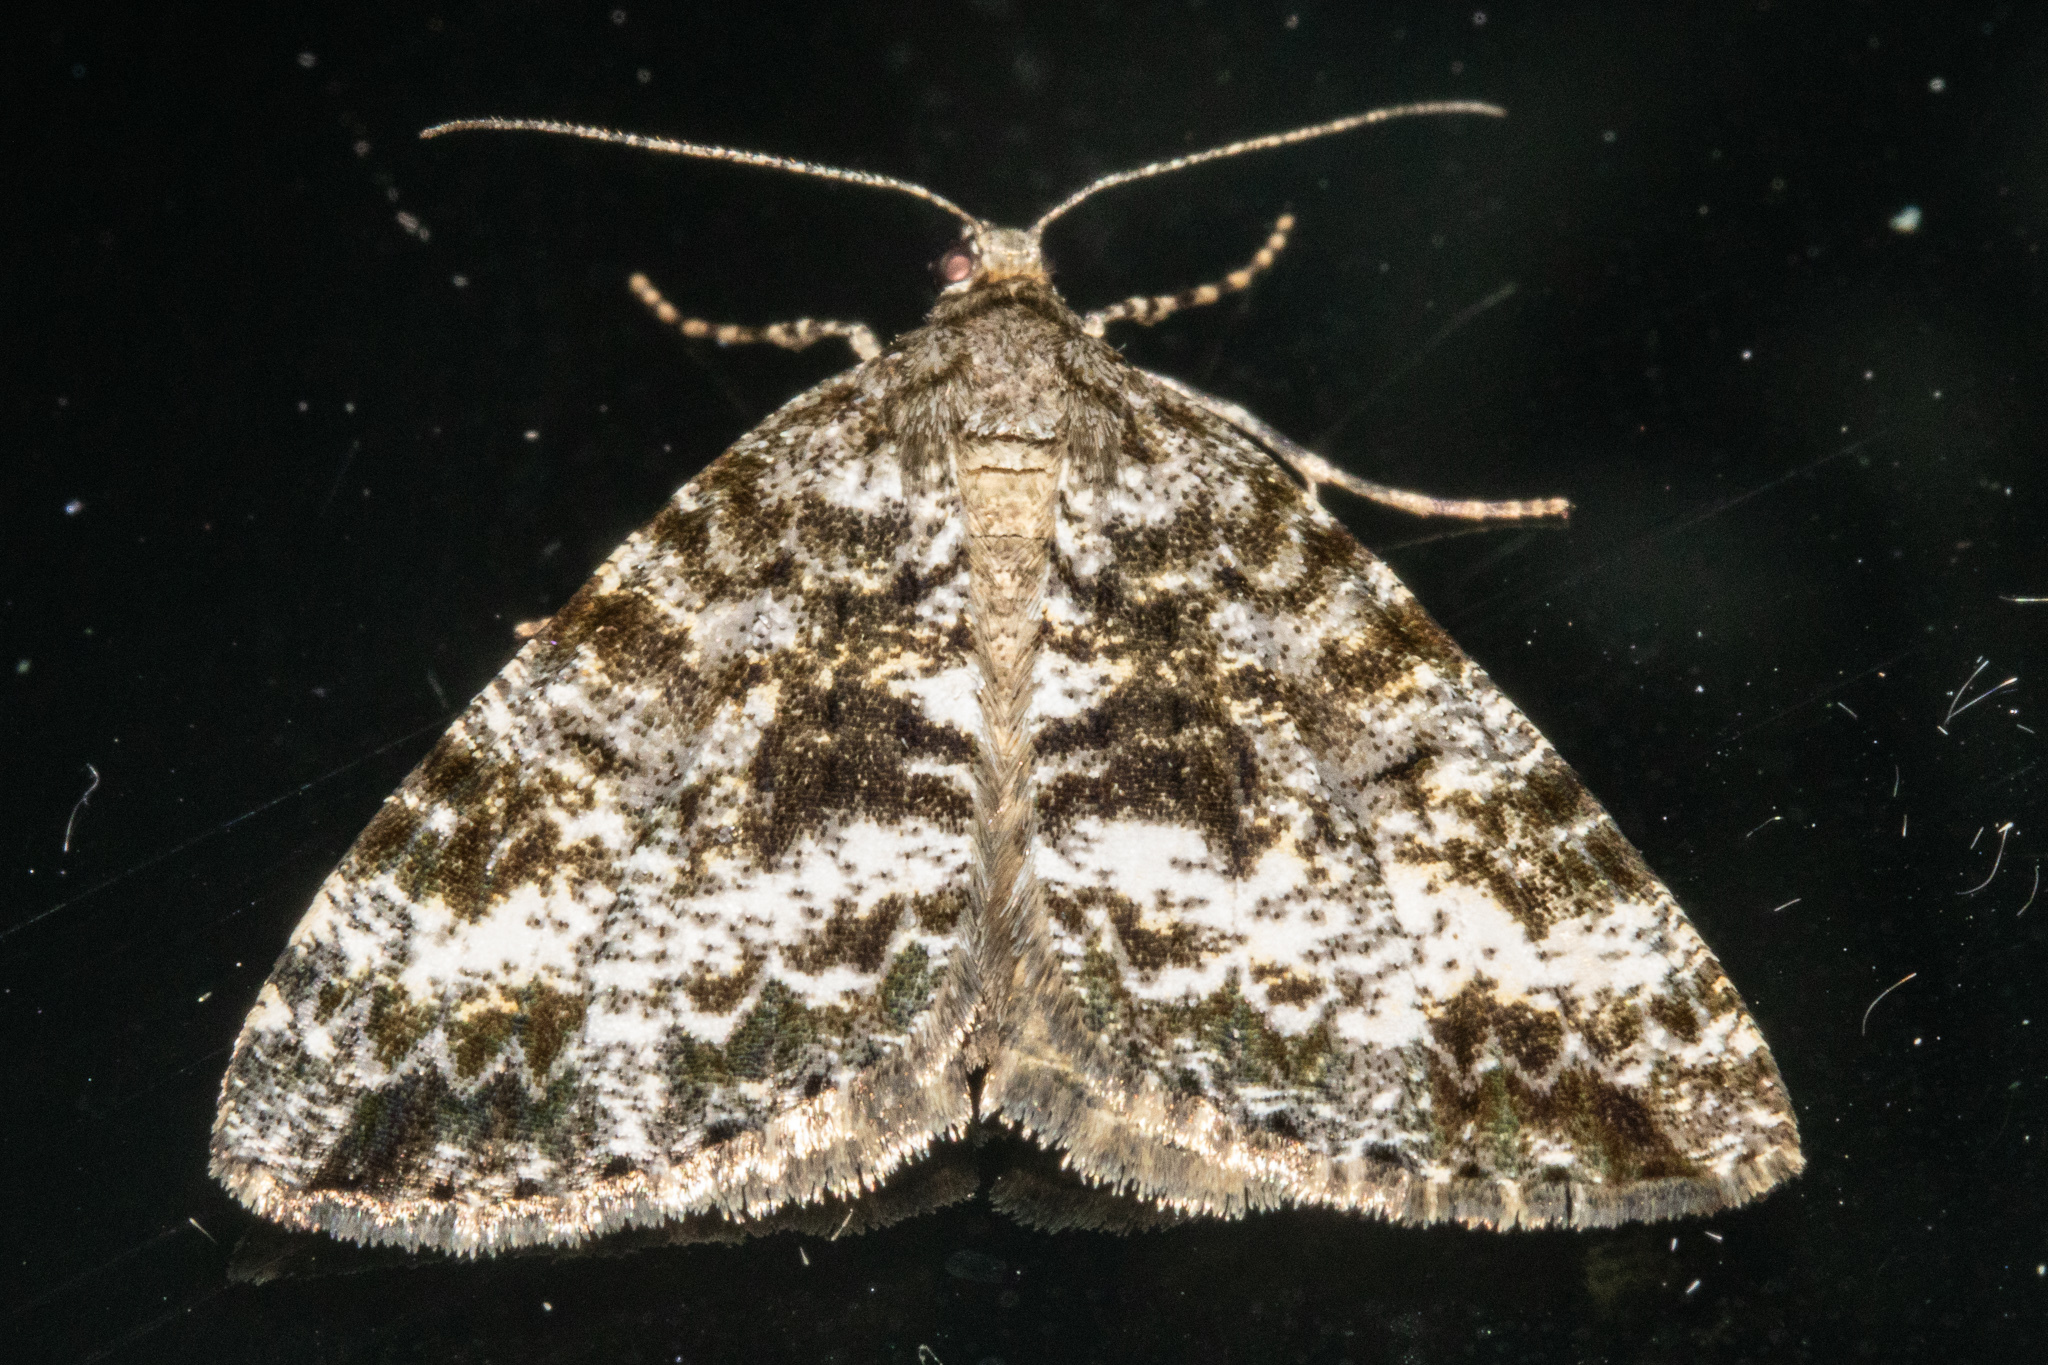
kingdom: Animalia
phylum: Arthropoda
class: Insecta
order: Lepidoptera
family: Geometridae
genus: Pseudocoremia
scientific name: Pseudocoremia lactiflua
